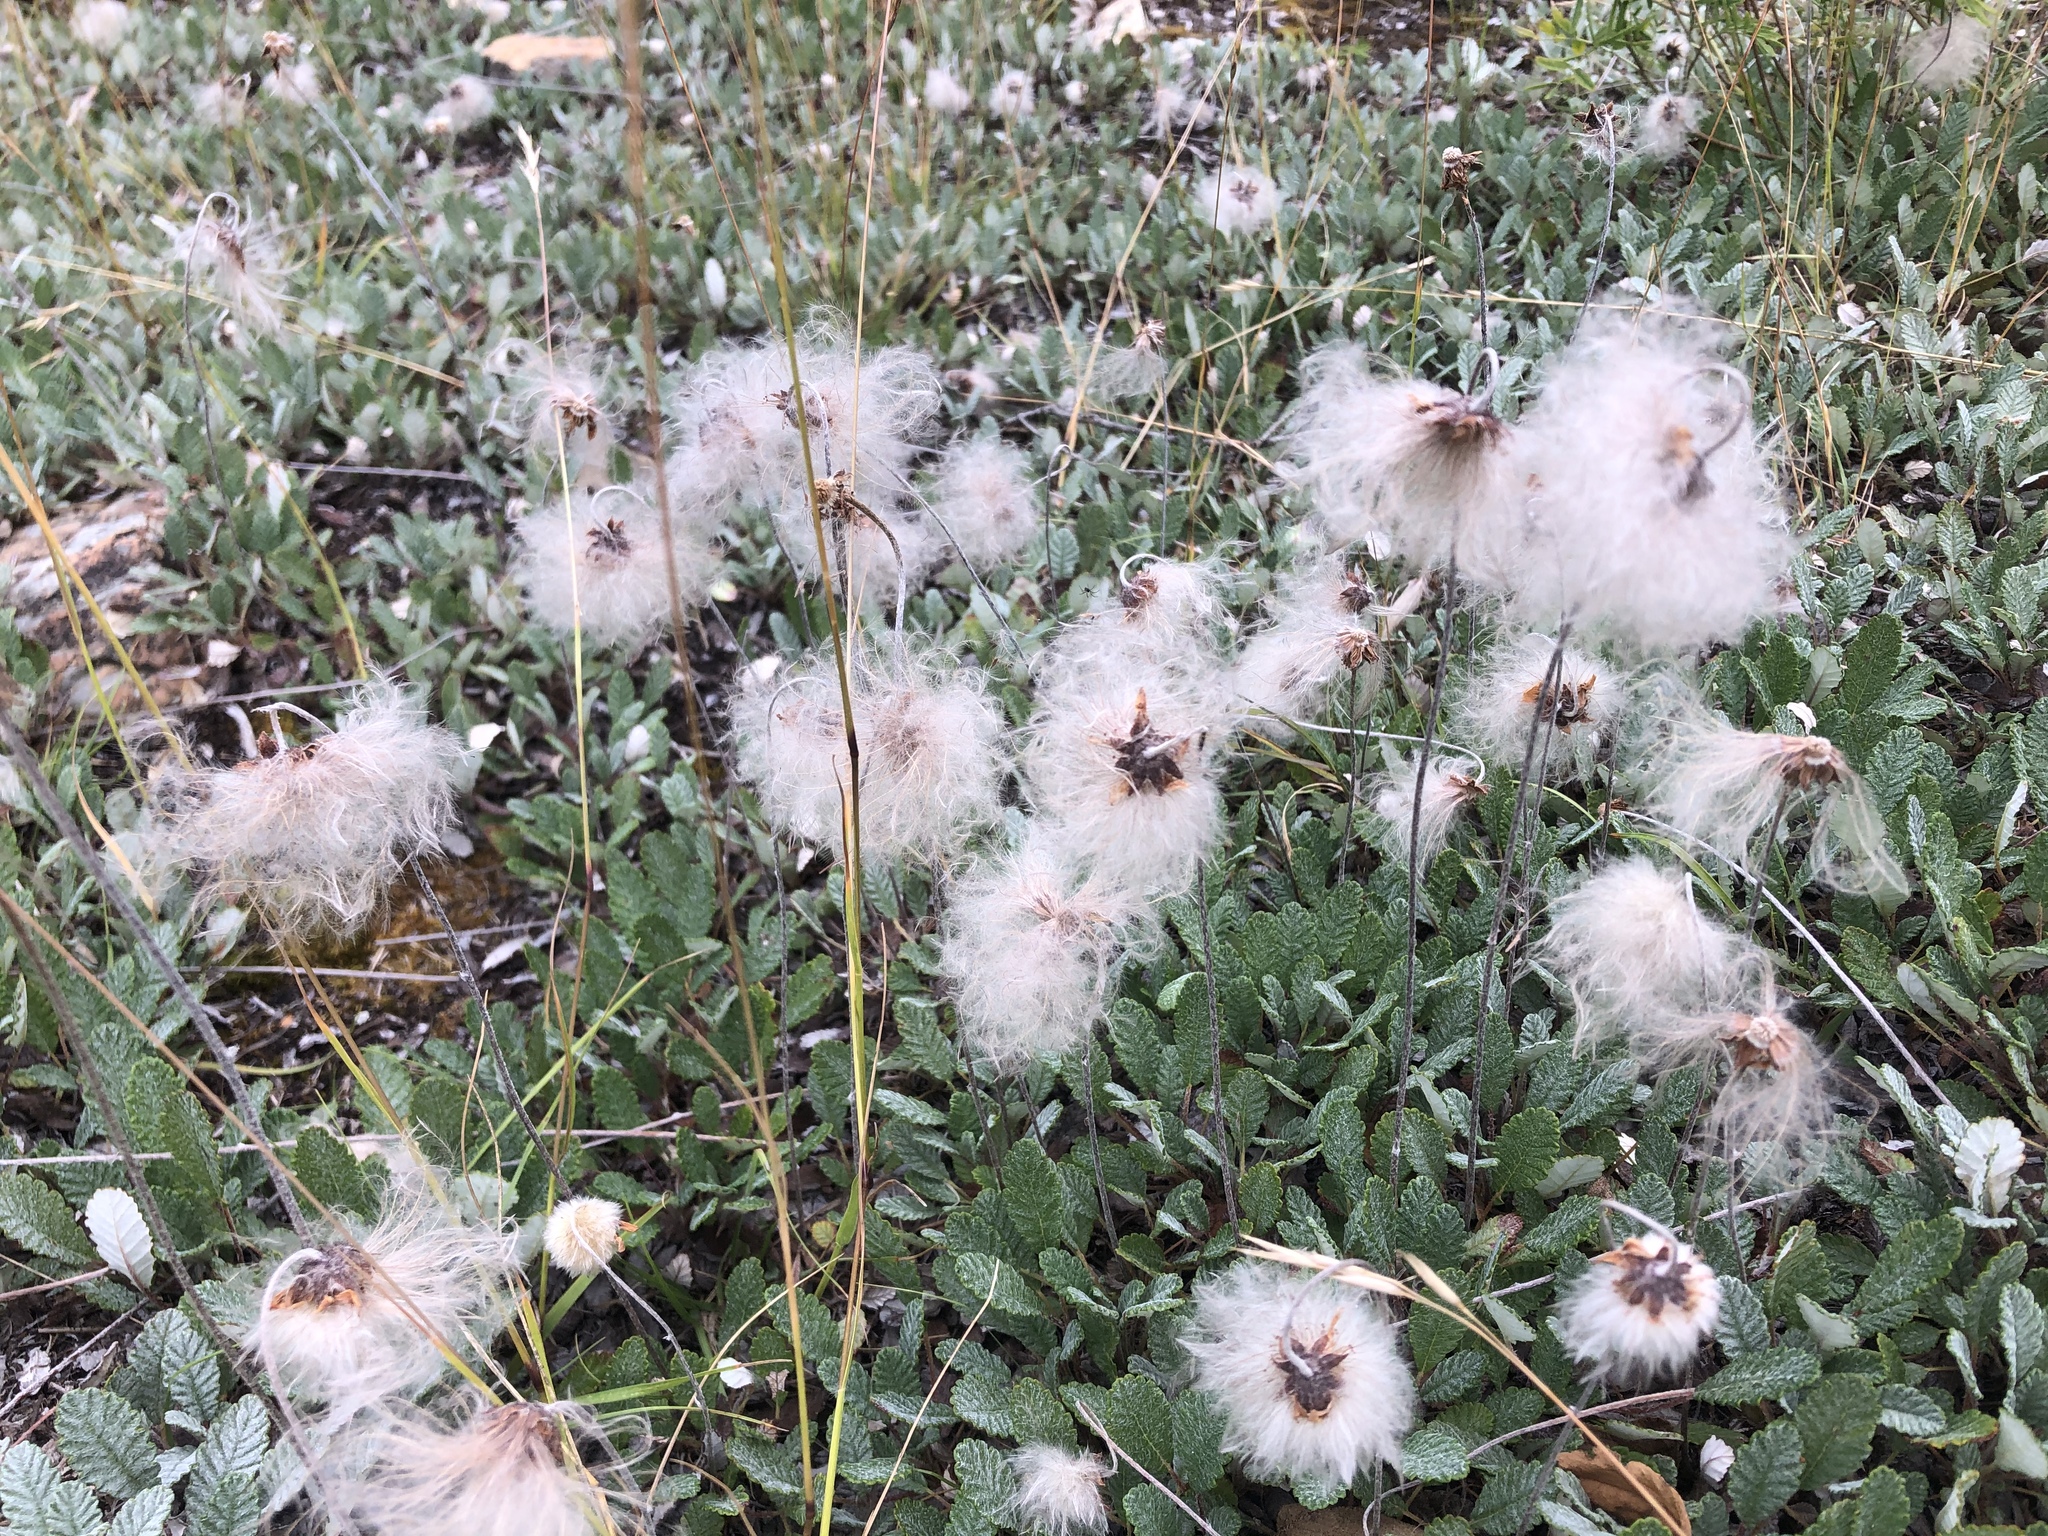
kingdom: Plantae
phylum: Tracheophyta
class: Magnoliopsida
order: Rosales
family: Rosaceae
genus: Dryas
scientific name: Dryas drummondii
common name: Drummond's dryad
